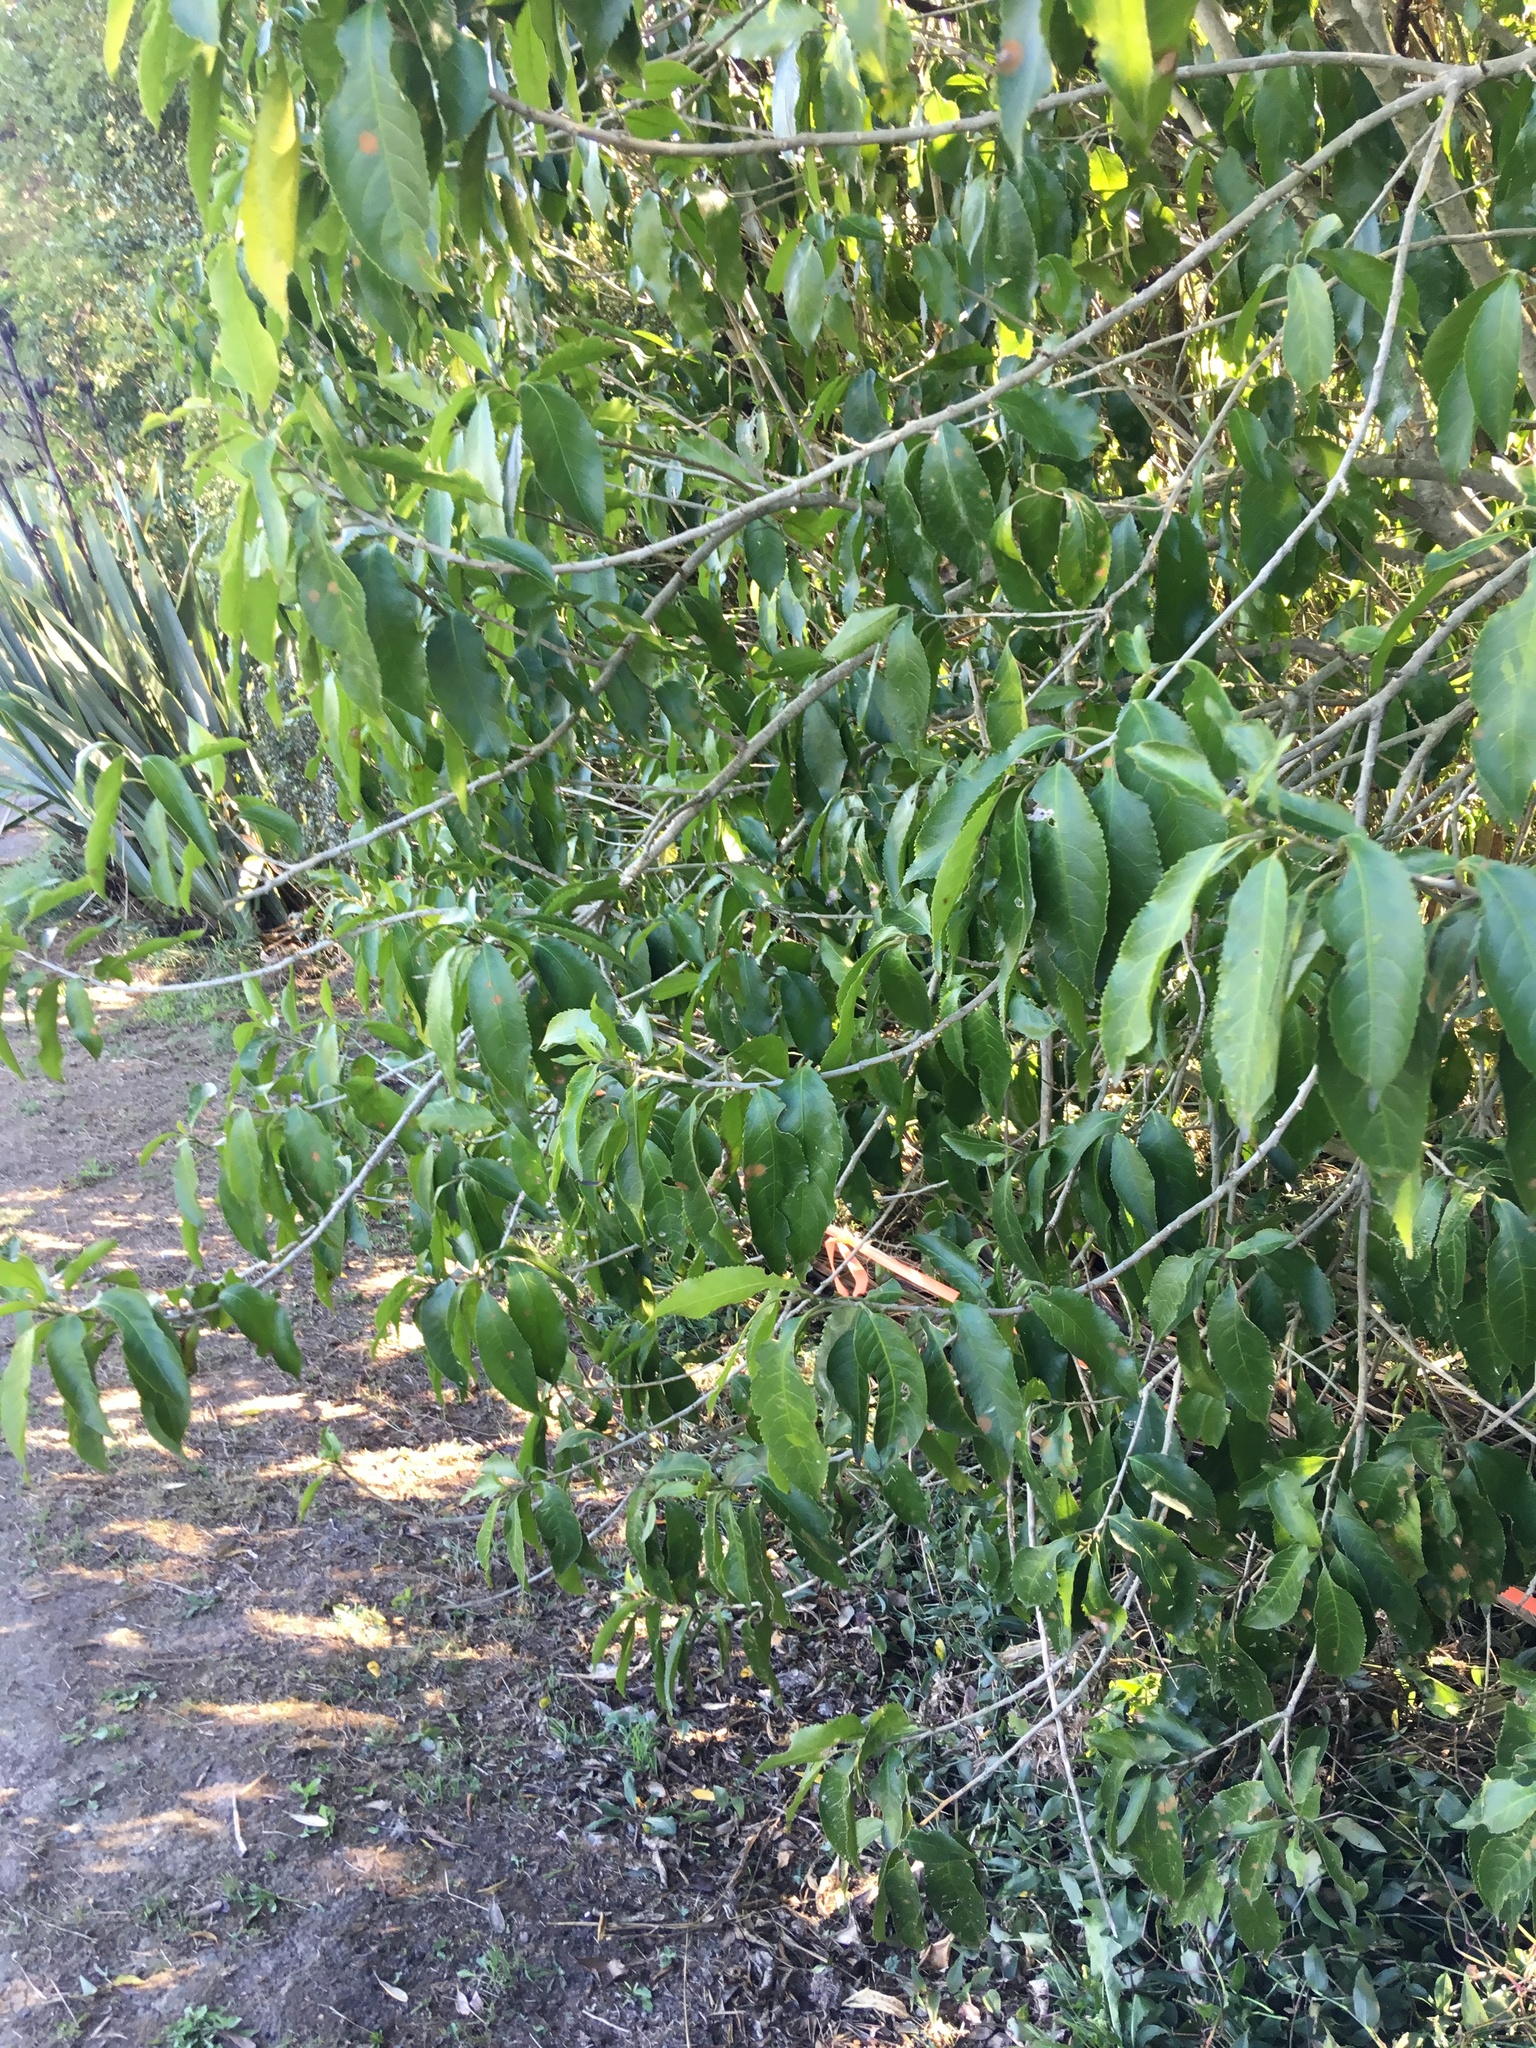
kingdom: Plantae
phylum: Tracheophyta
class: Magnoliopsida
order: Malpighiales
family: Violaceae
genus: Melicytus
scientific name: Melicytus ramiflorus
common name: Mahoe
